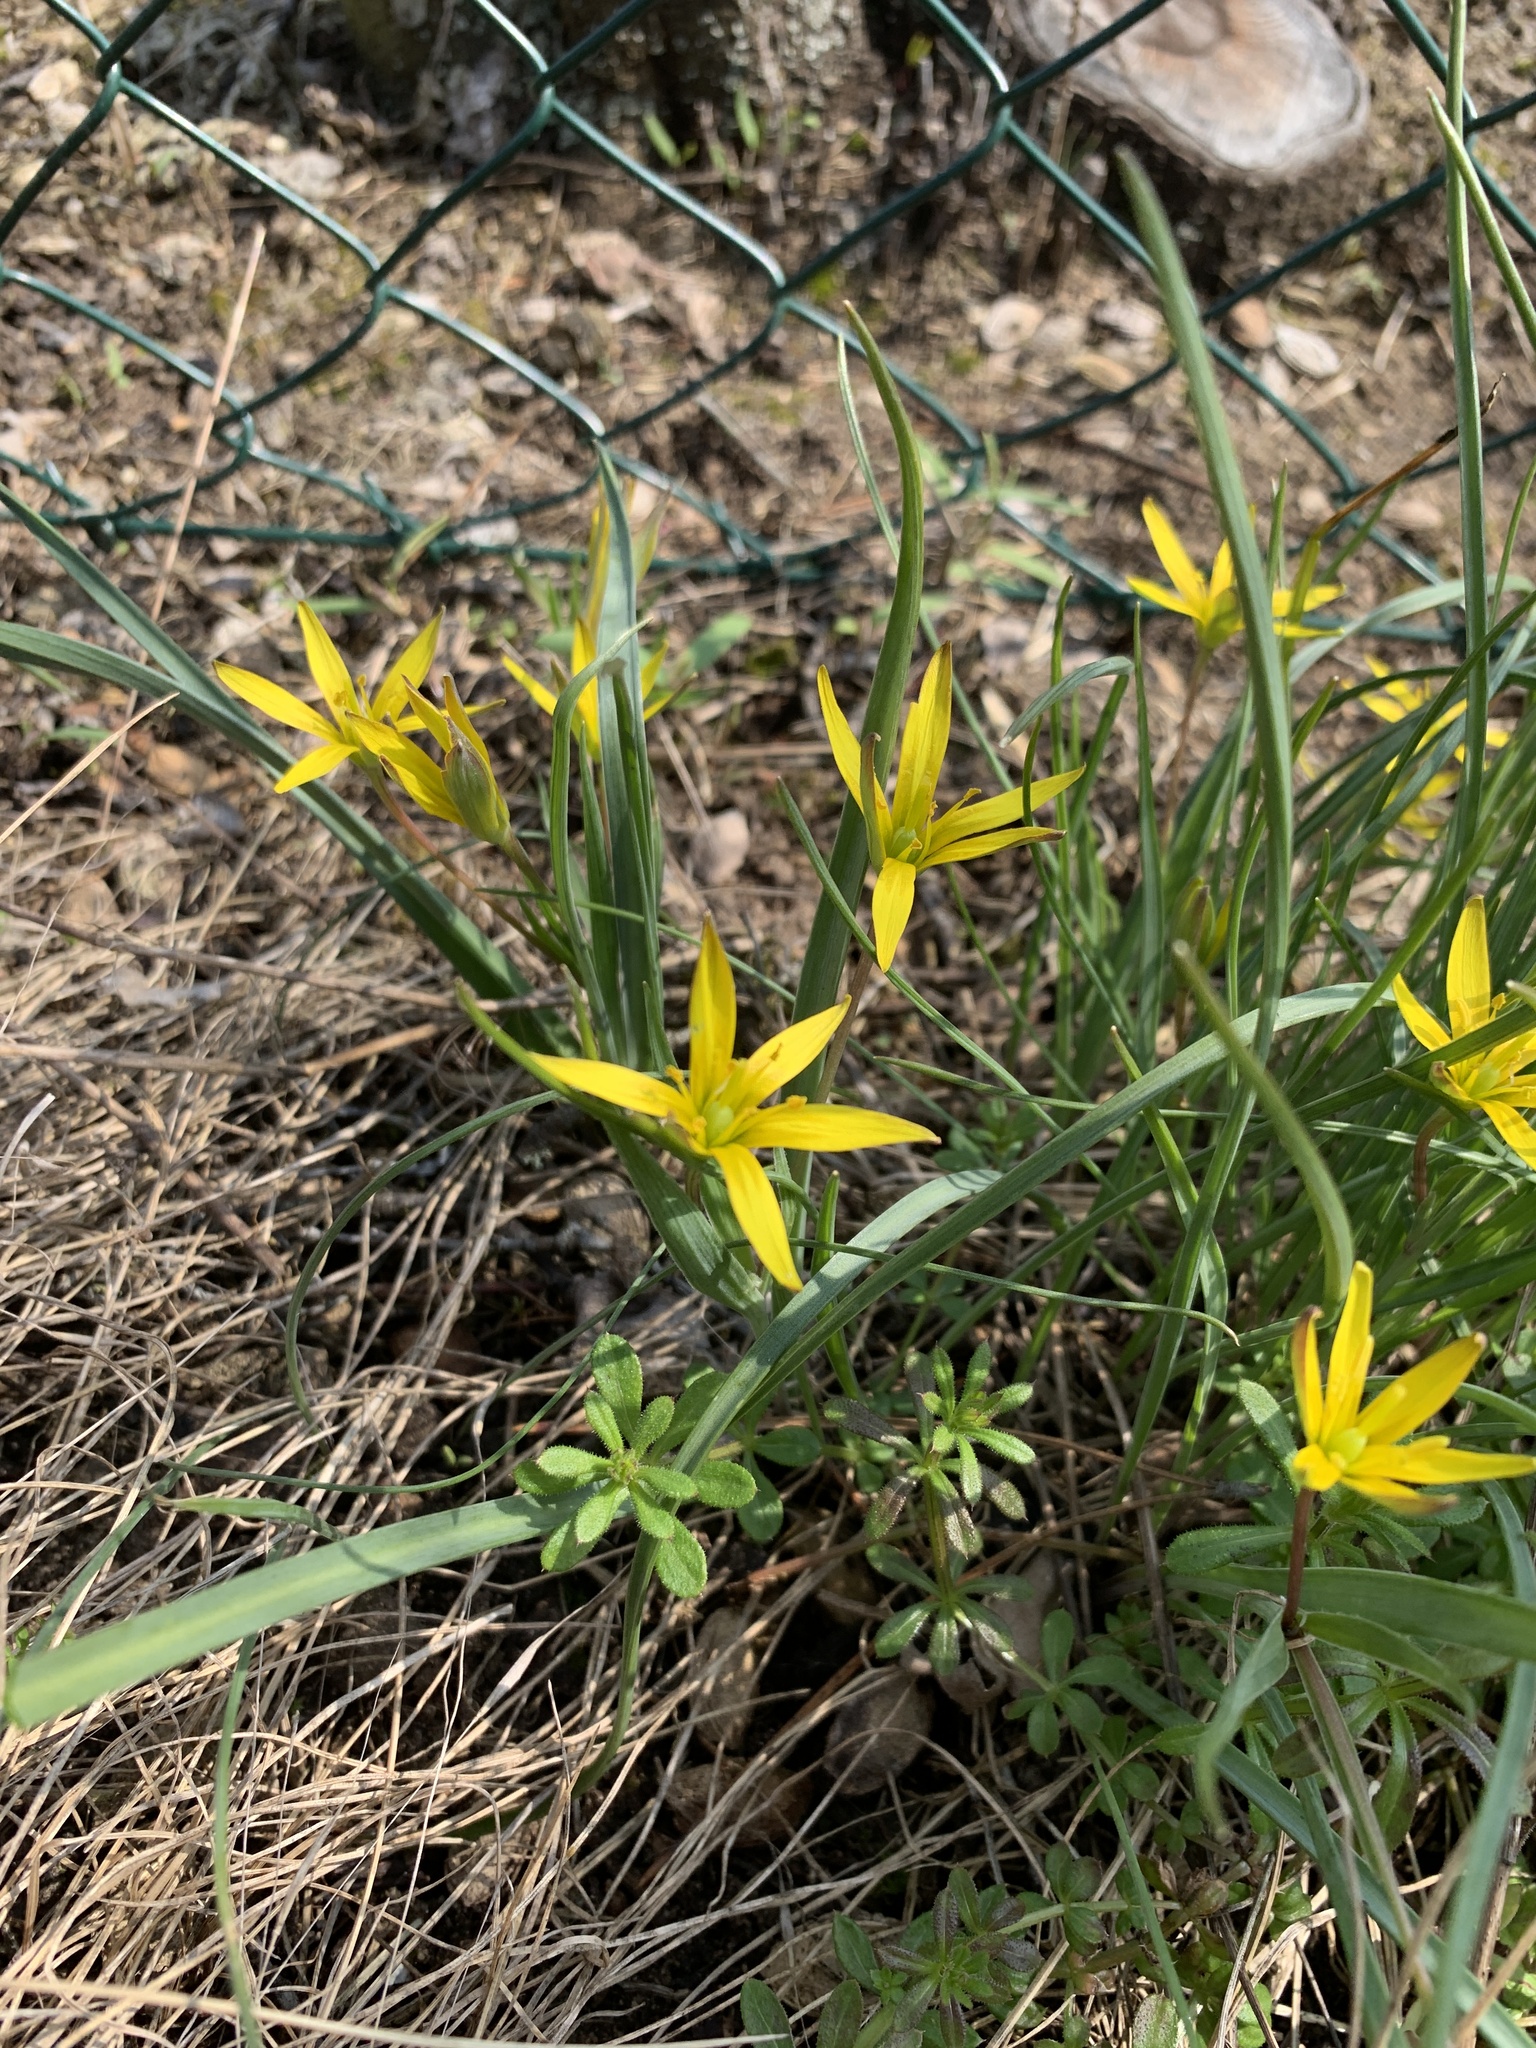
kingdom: Plantae
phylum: Tracheophyta
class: Liliopsida
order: Liliales
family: Liliaceae
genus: Gagea
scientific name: Gagea pratensis
